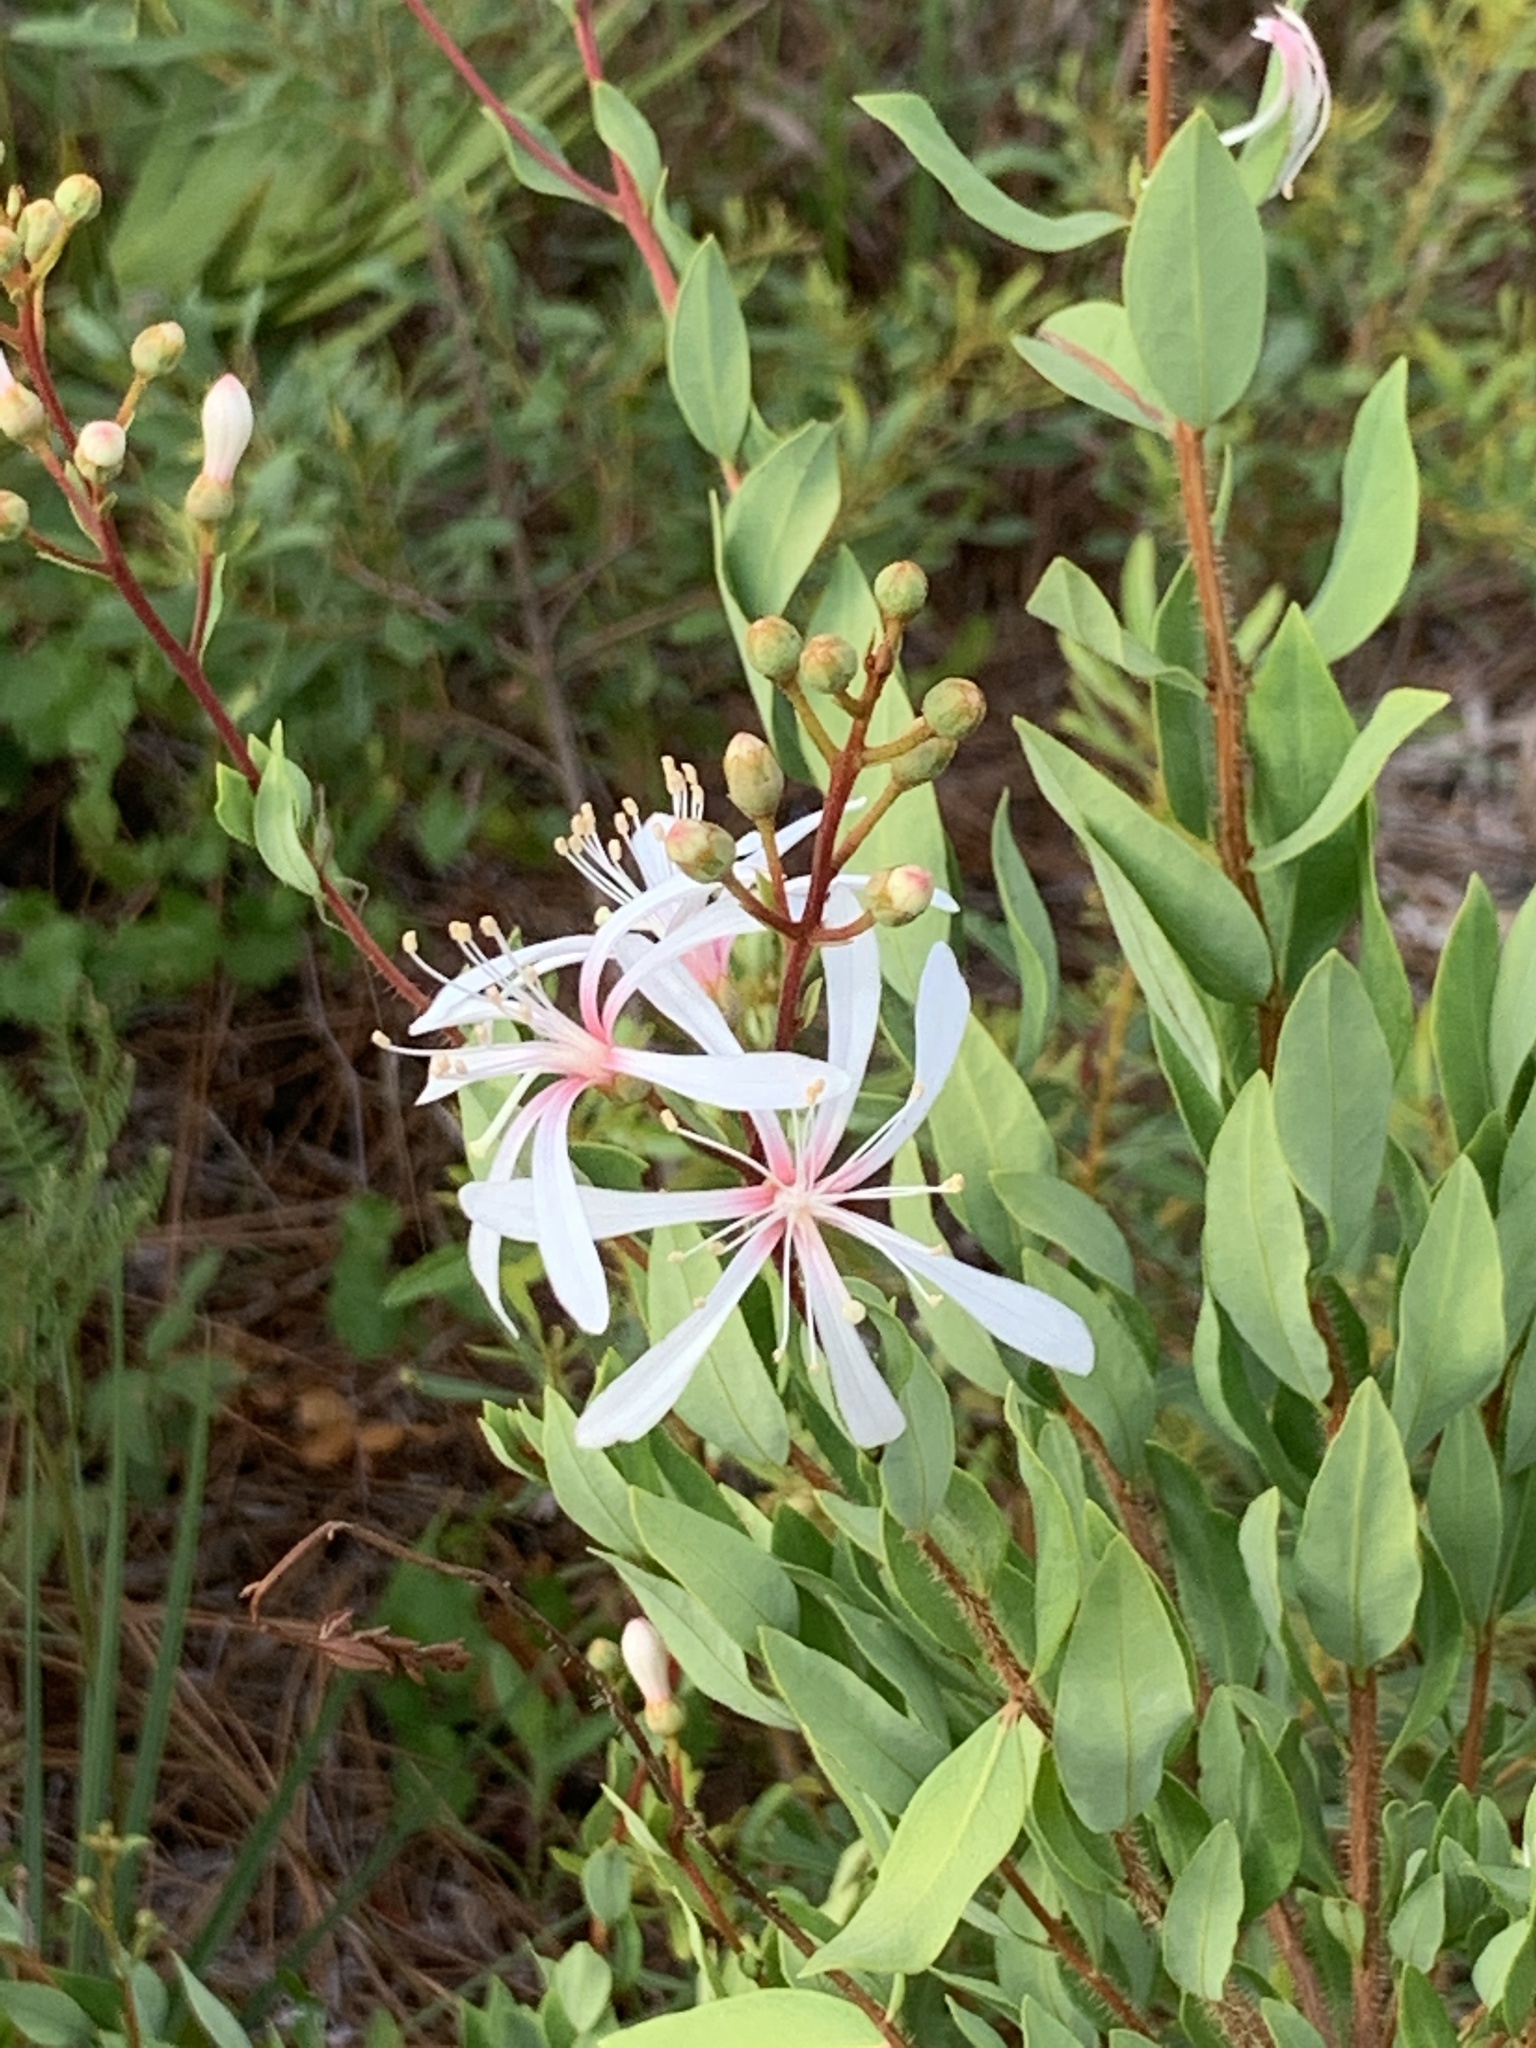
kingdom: Plantae
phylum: Tracheophyta
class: Magnoliopsida
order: Ericales
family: Ericaceae
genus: Bejaria
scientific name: Bejaria racemosa
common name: Tarflower
